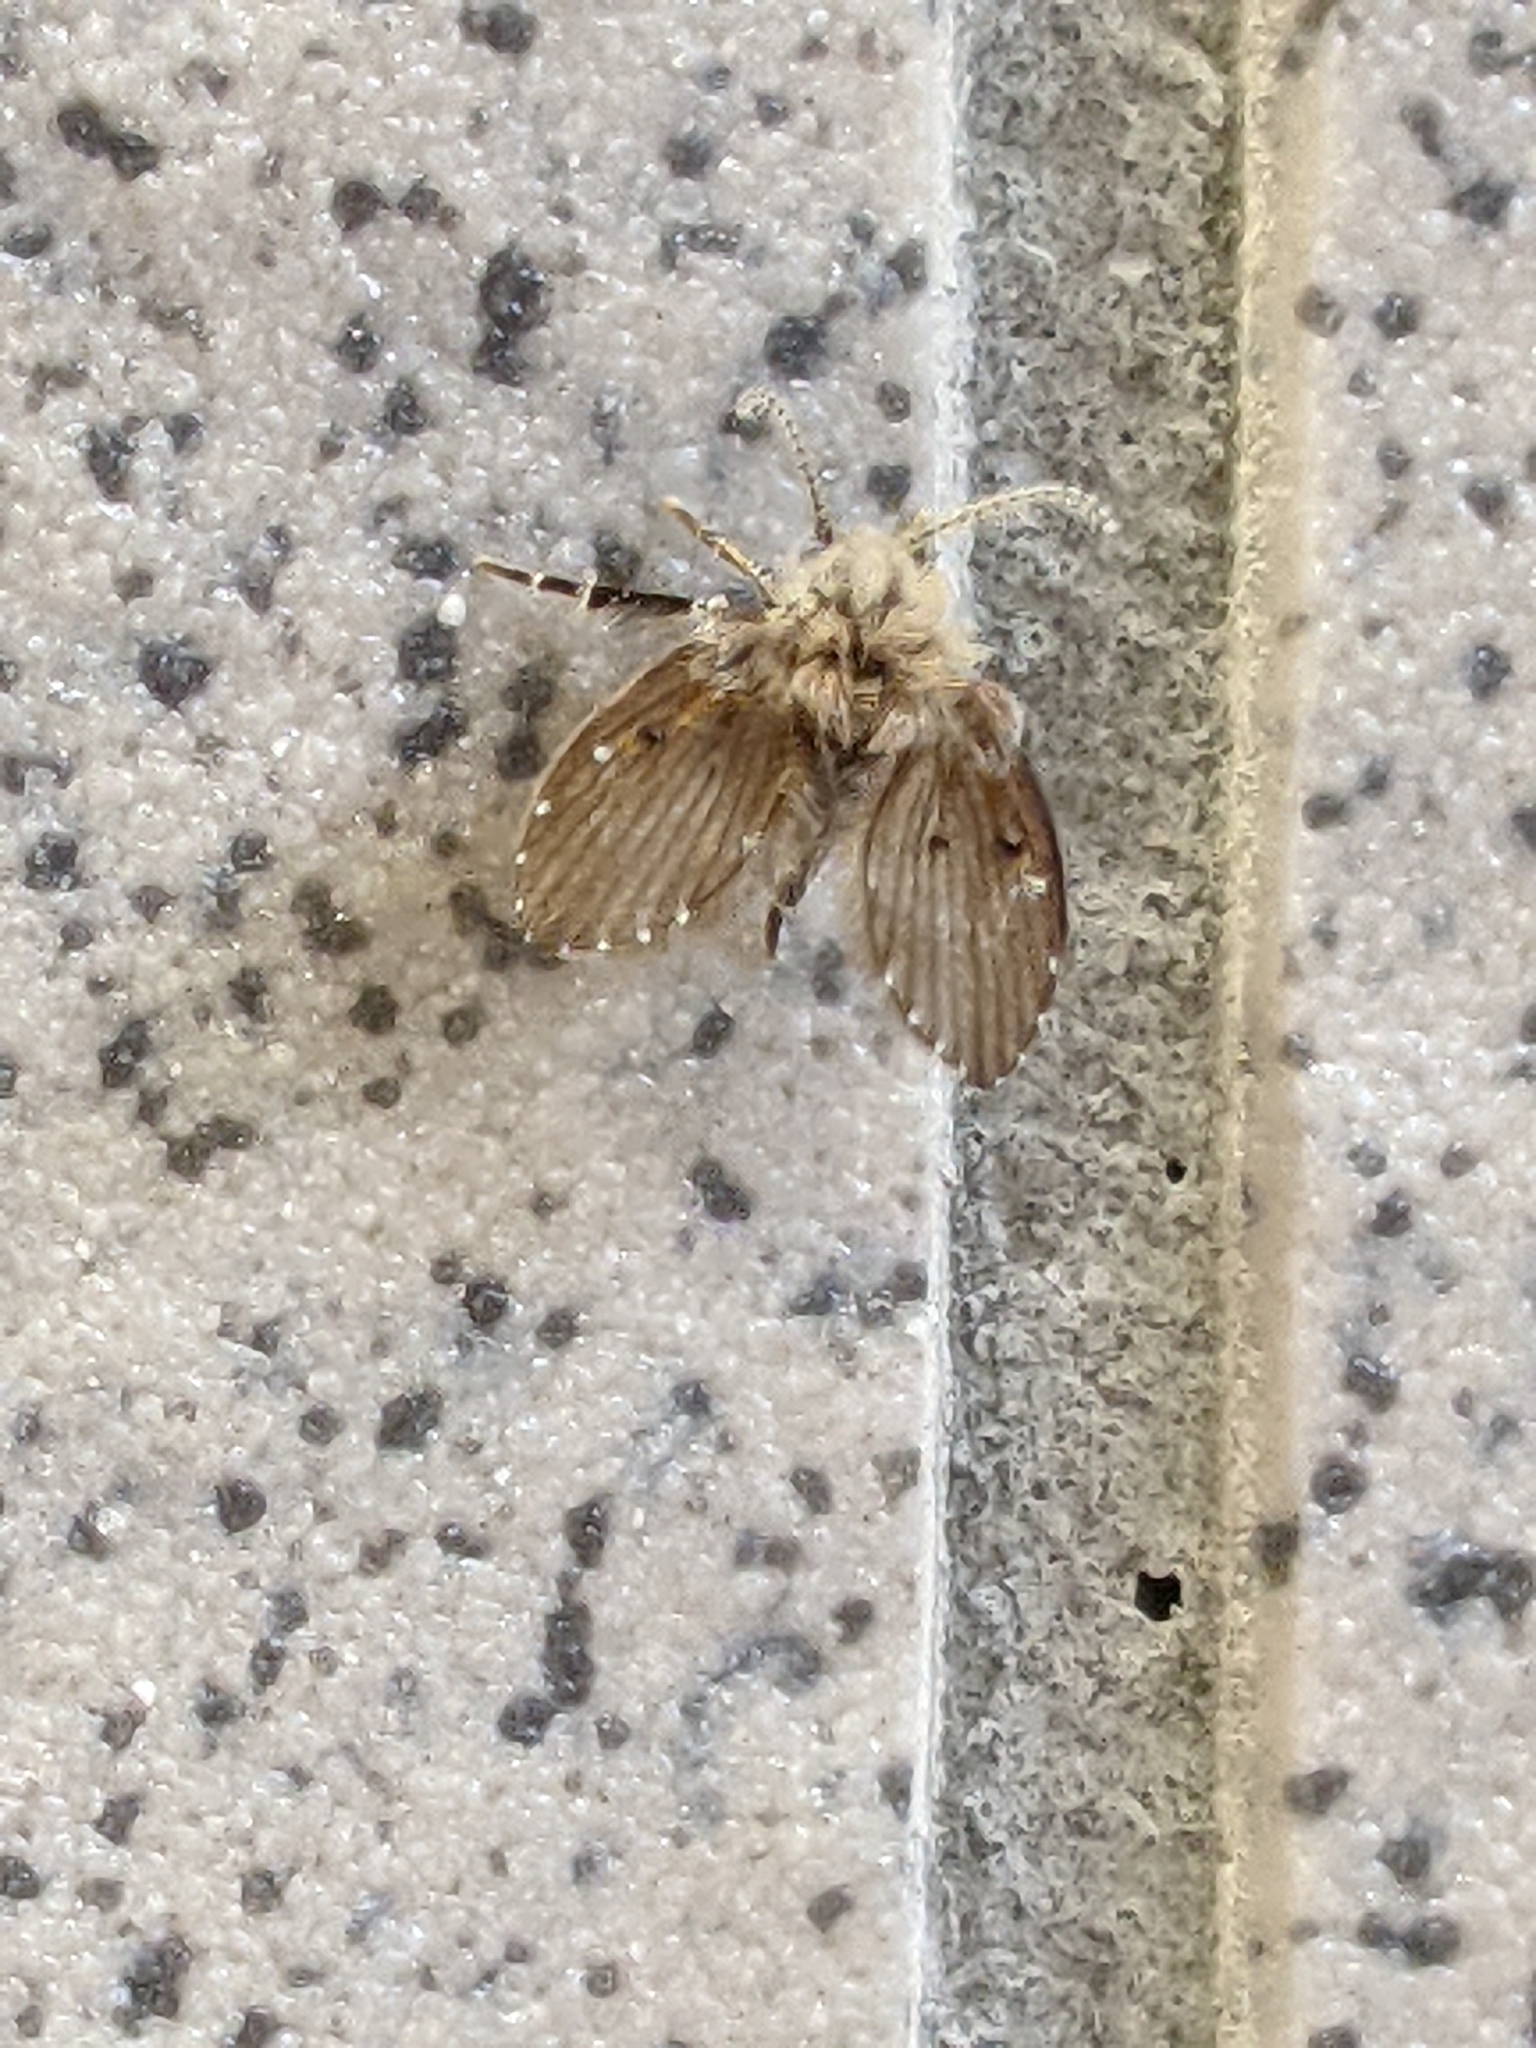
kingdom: Animalia
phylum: Arthropoda
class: Insecta
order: Diptera
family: Psychodidae
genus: Clogmia
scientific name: Clogmia albipunctatus
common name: White-spotted moth fly
